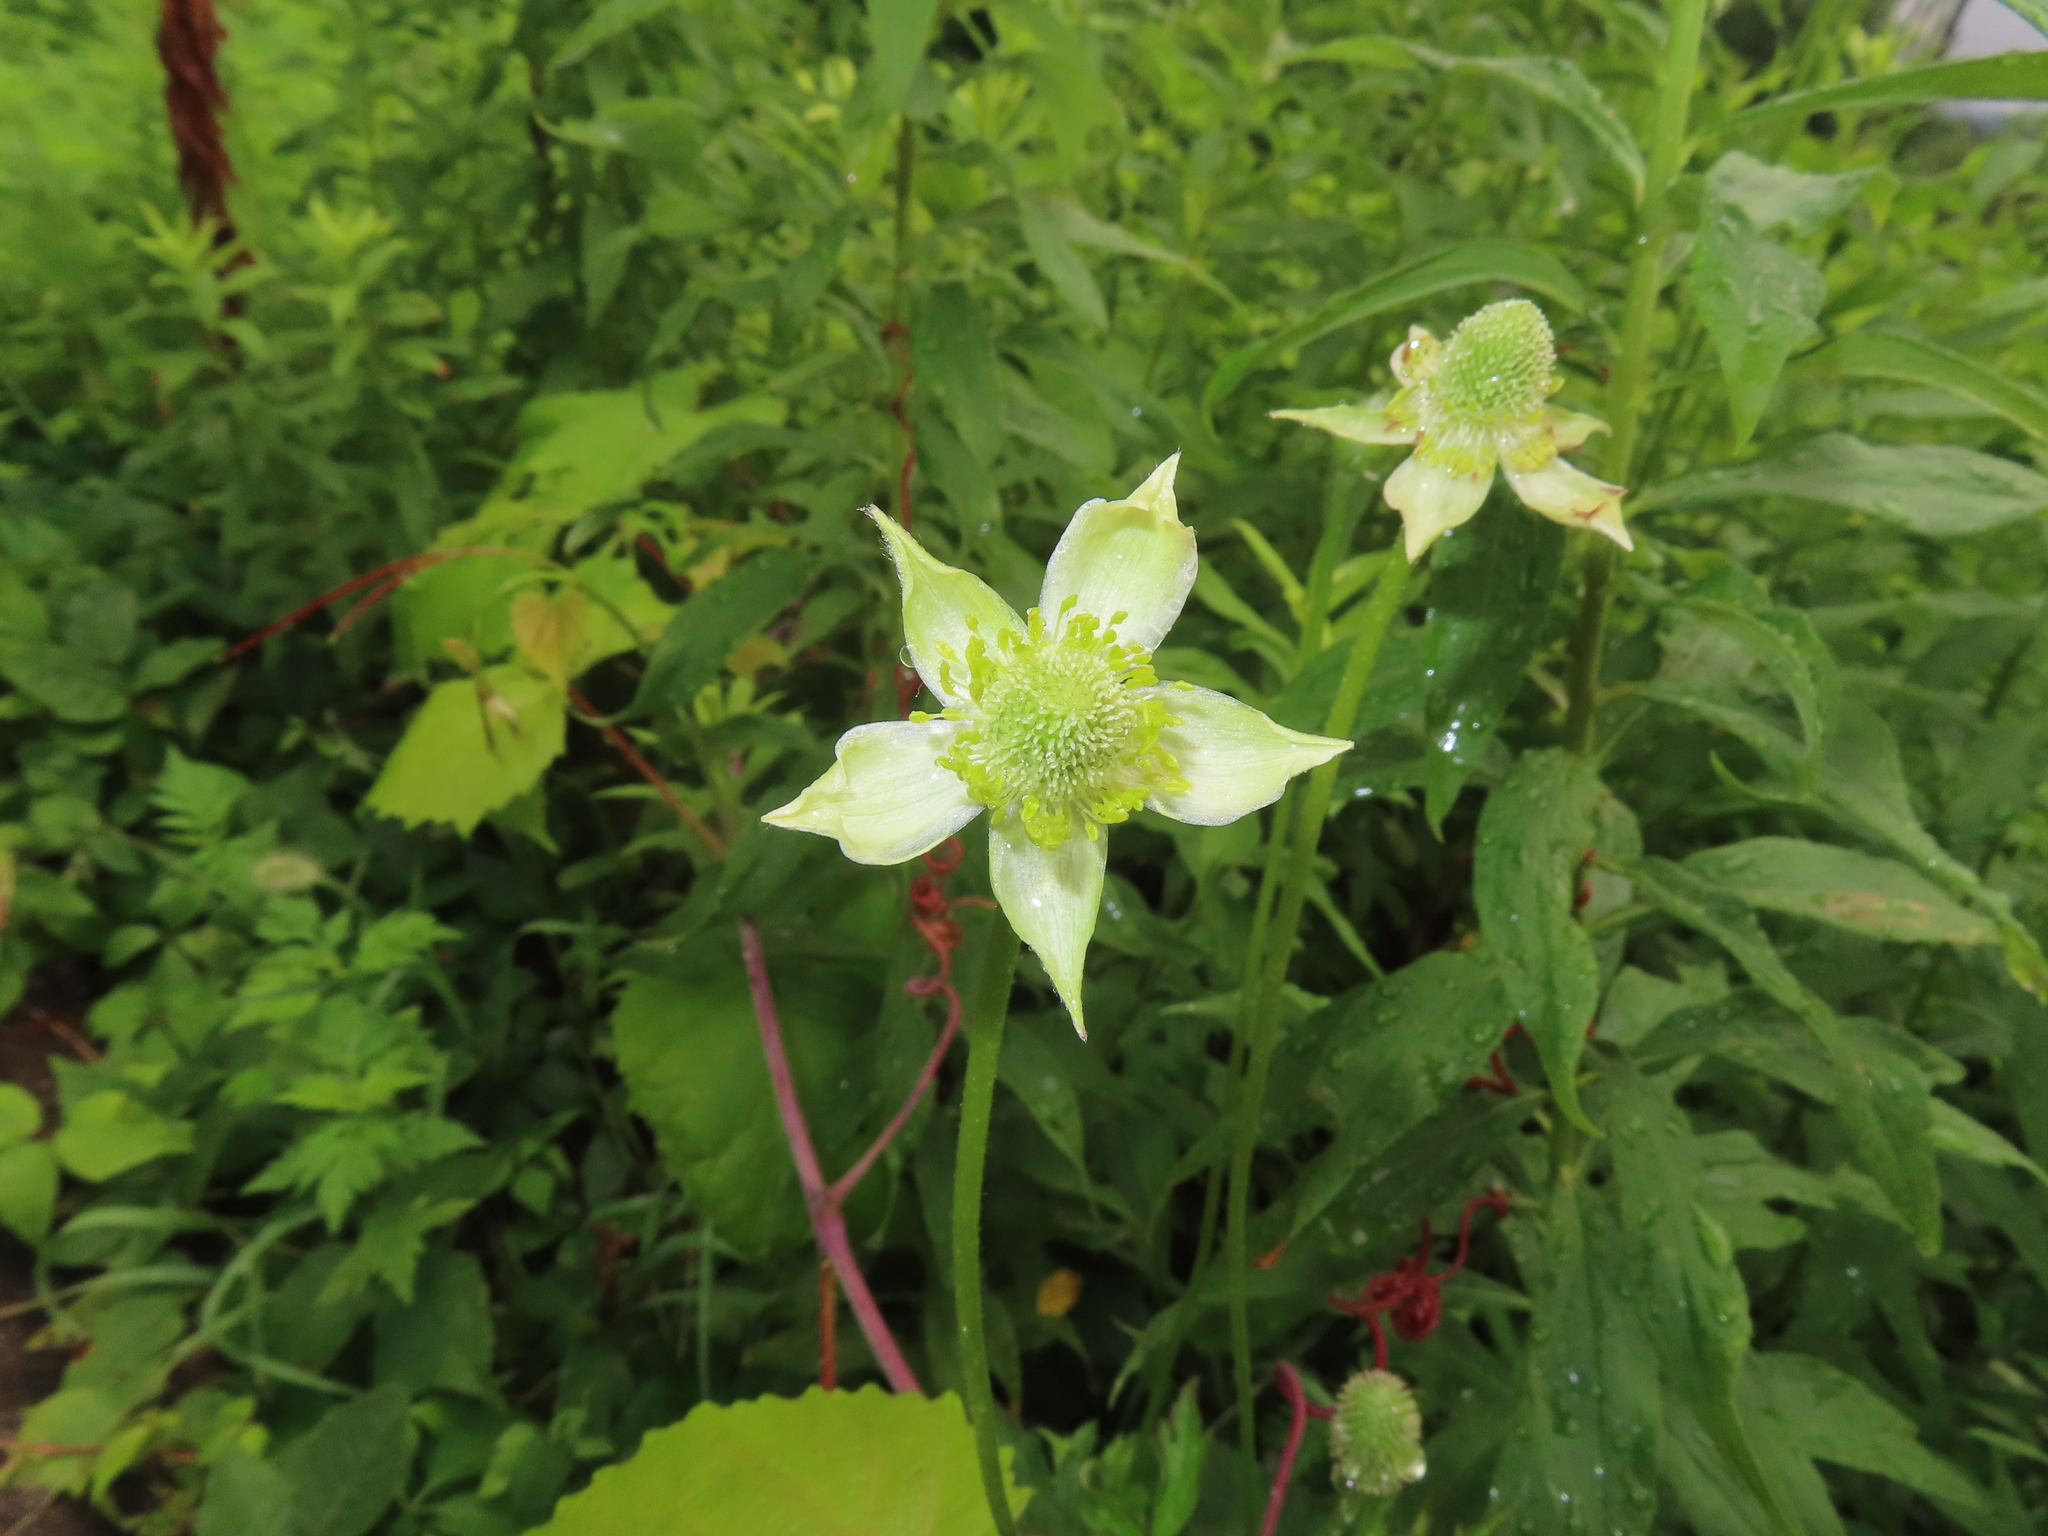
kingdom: Plantae
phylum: Tracheophyta
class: Magnoliopsida
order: Ranunculales
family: Ranunculaceae
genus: Anemone
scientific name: Anemone virginiana
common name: Tall anemone
